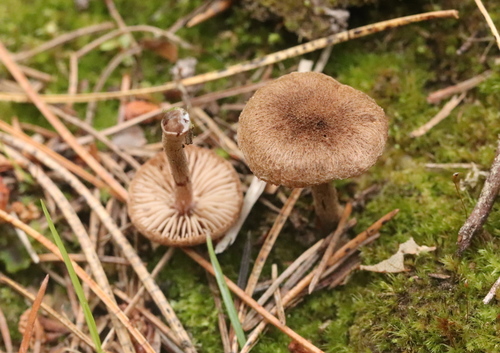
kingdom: Fungi
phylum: Basidiomycota
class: Agaricomycetes
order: Agaricales
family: Inocybaceae
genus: Inocybe
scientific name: Inocybe lacera
